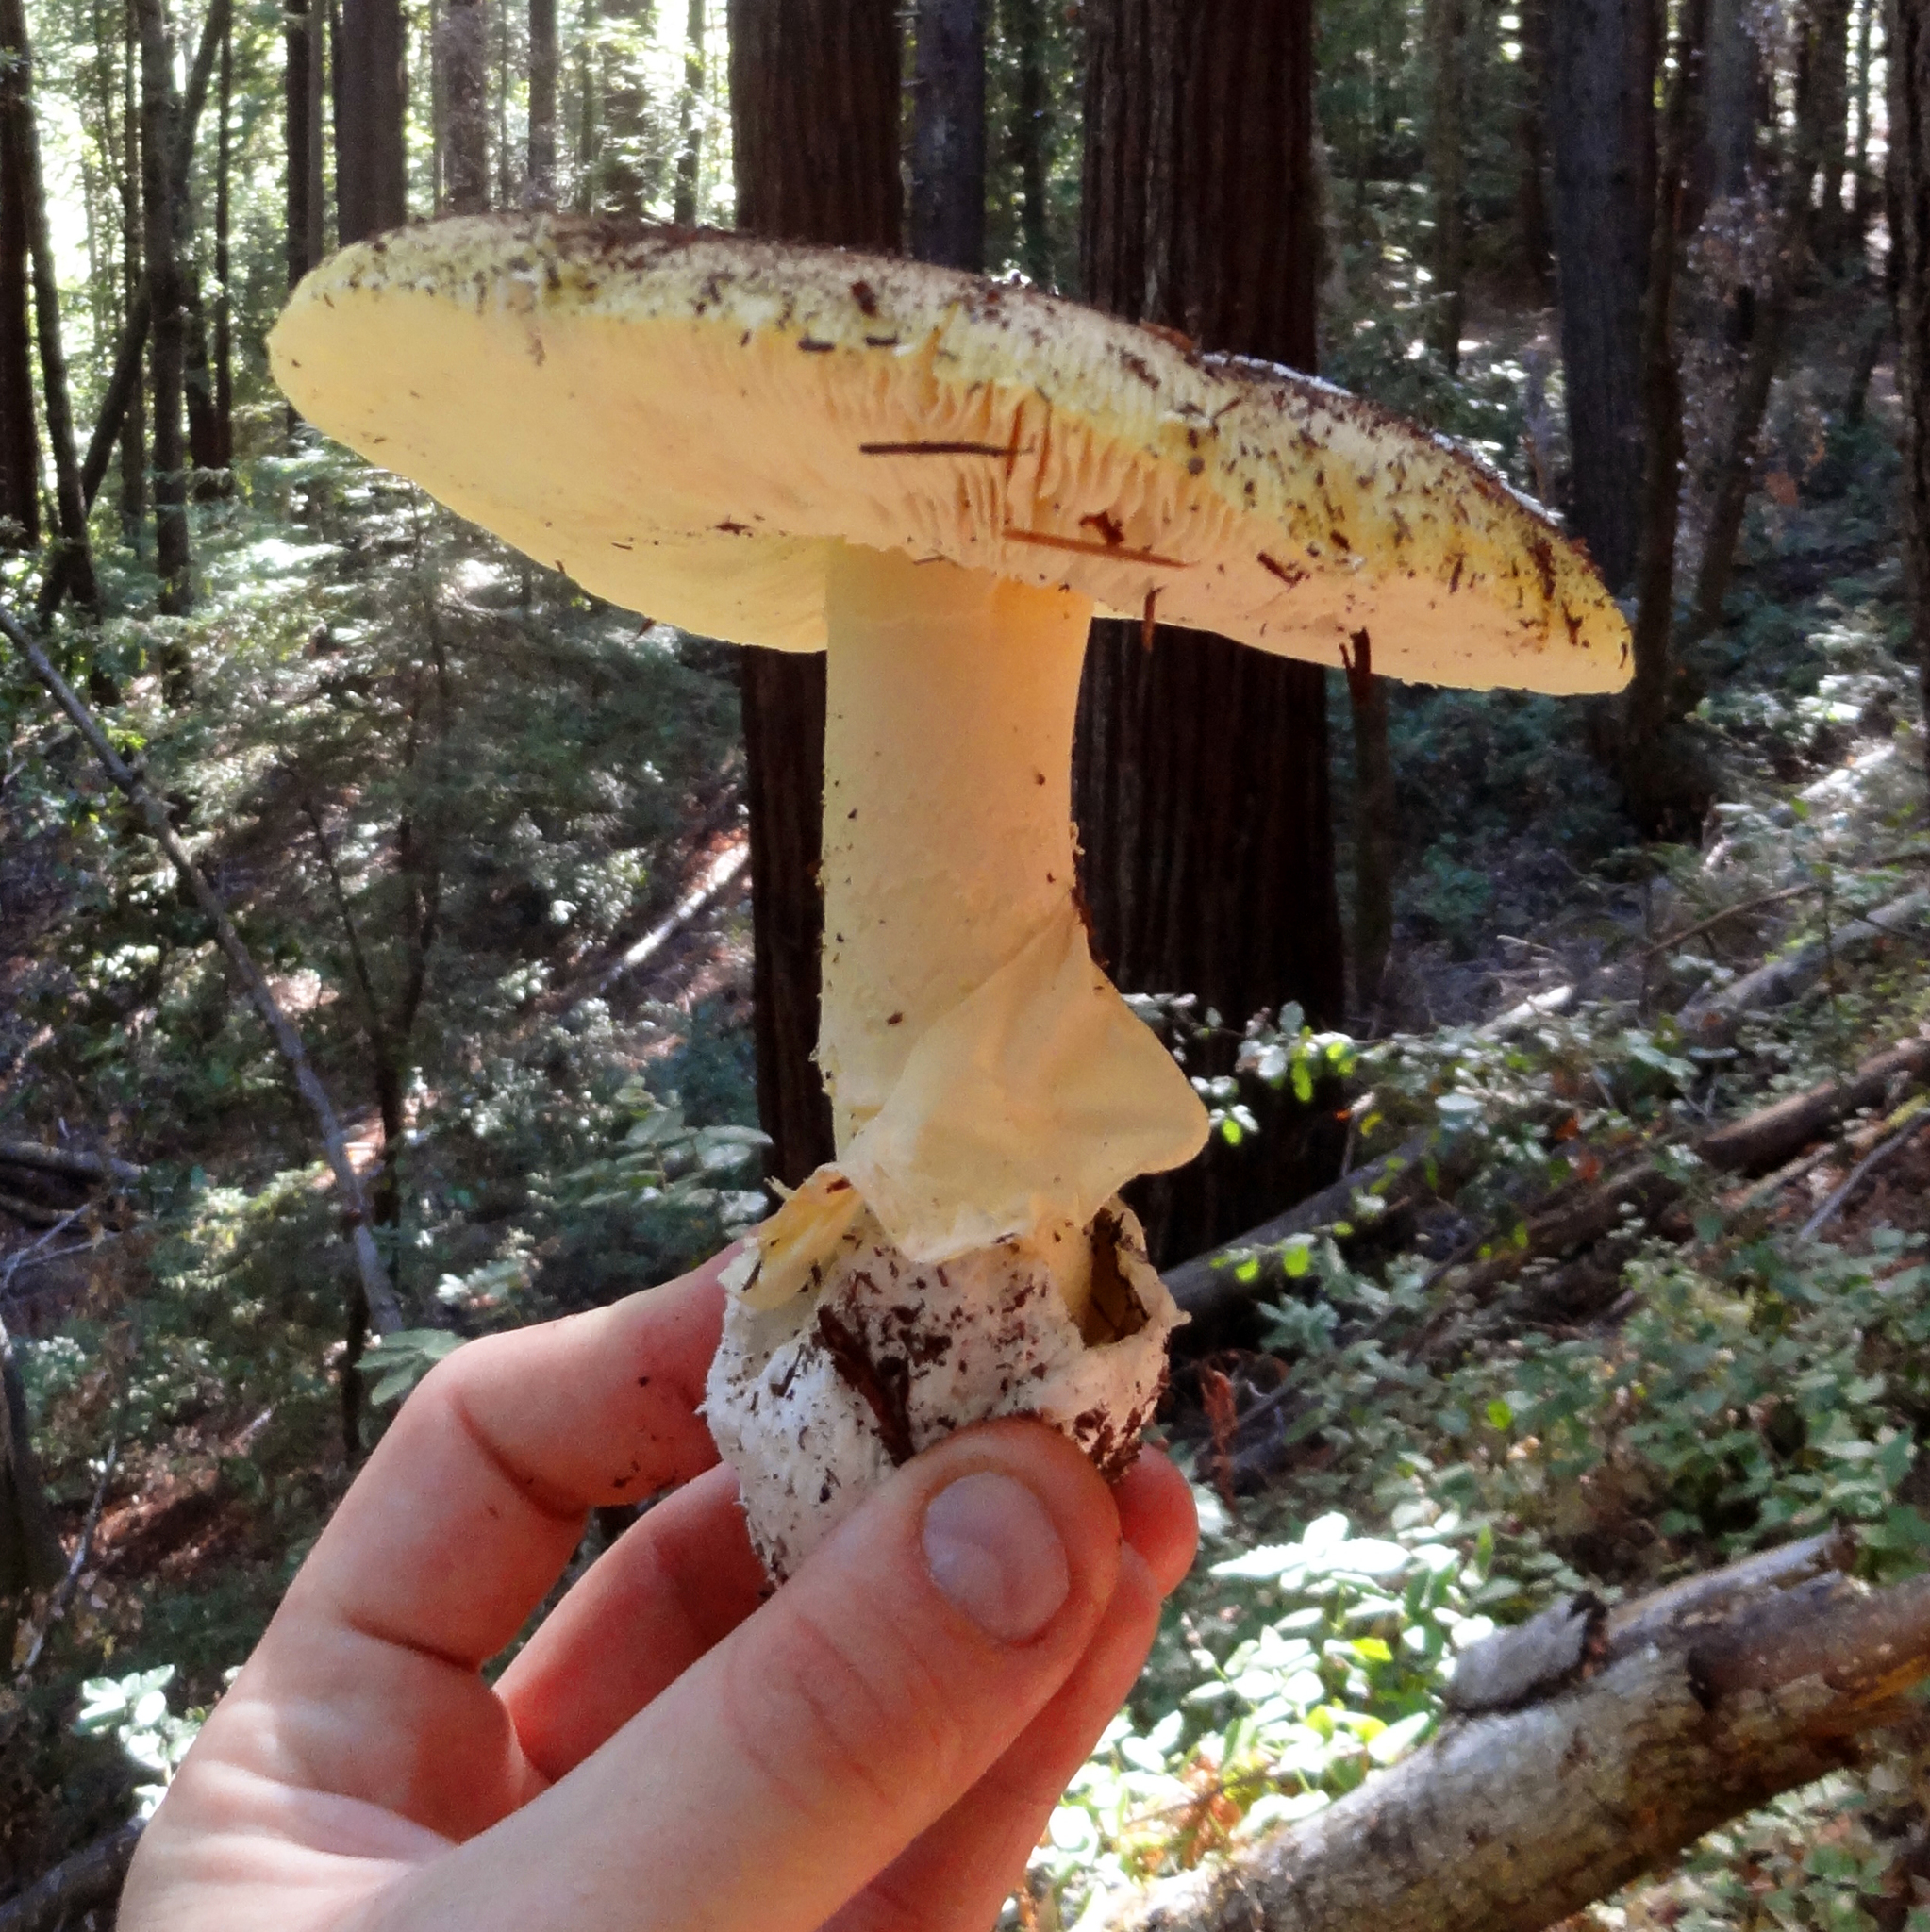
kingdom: Fungi
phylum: Basidiomycota
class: Agaricomycetes
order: Agaricales
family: Amanitaceae
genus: Amanita
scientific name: Amanita calyptroderma
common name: Coccora
